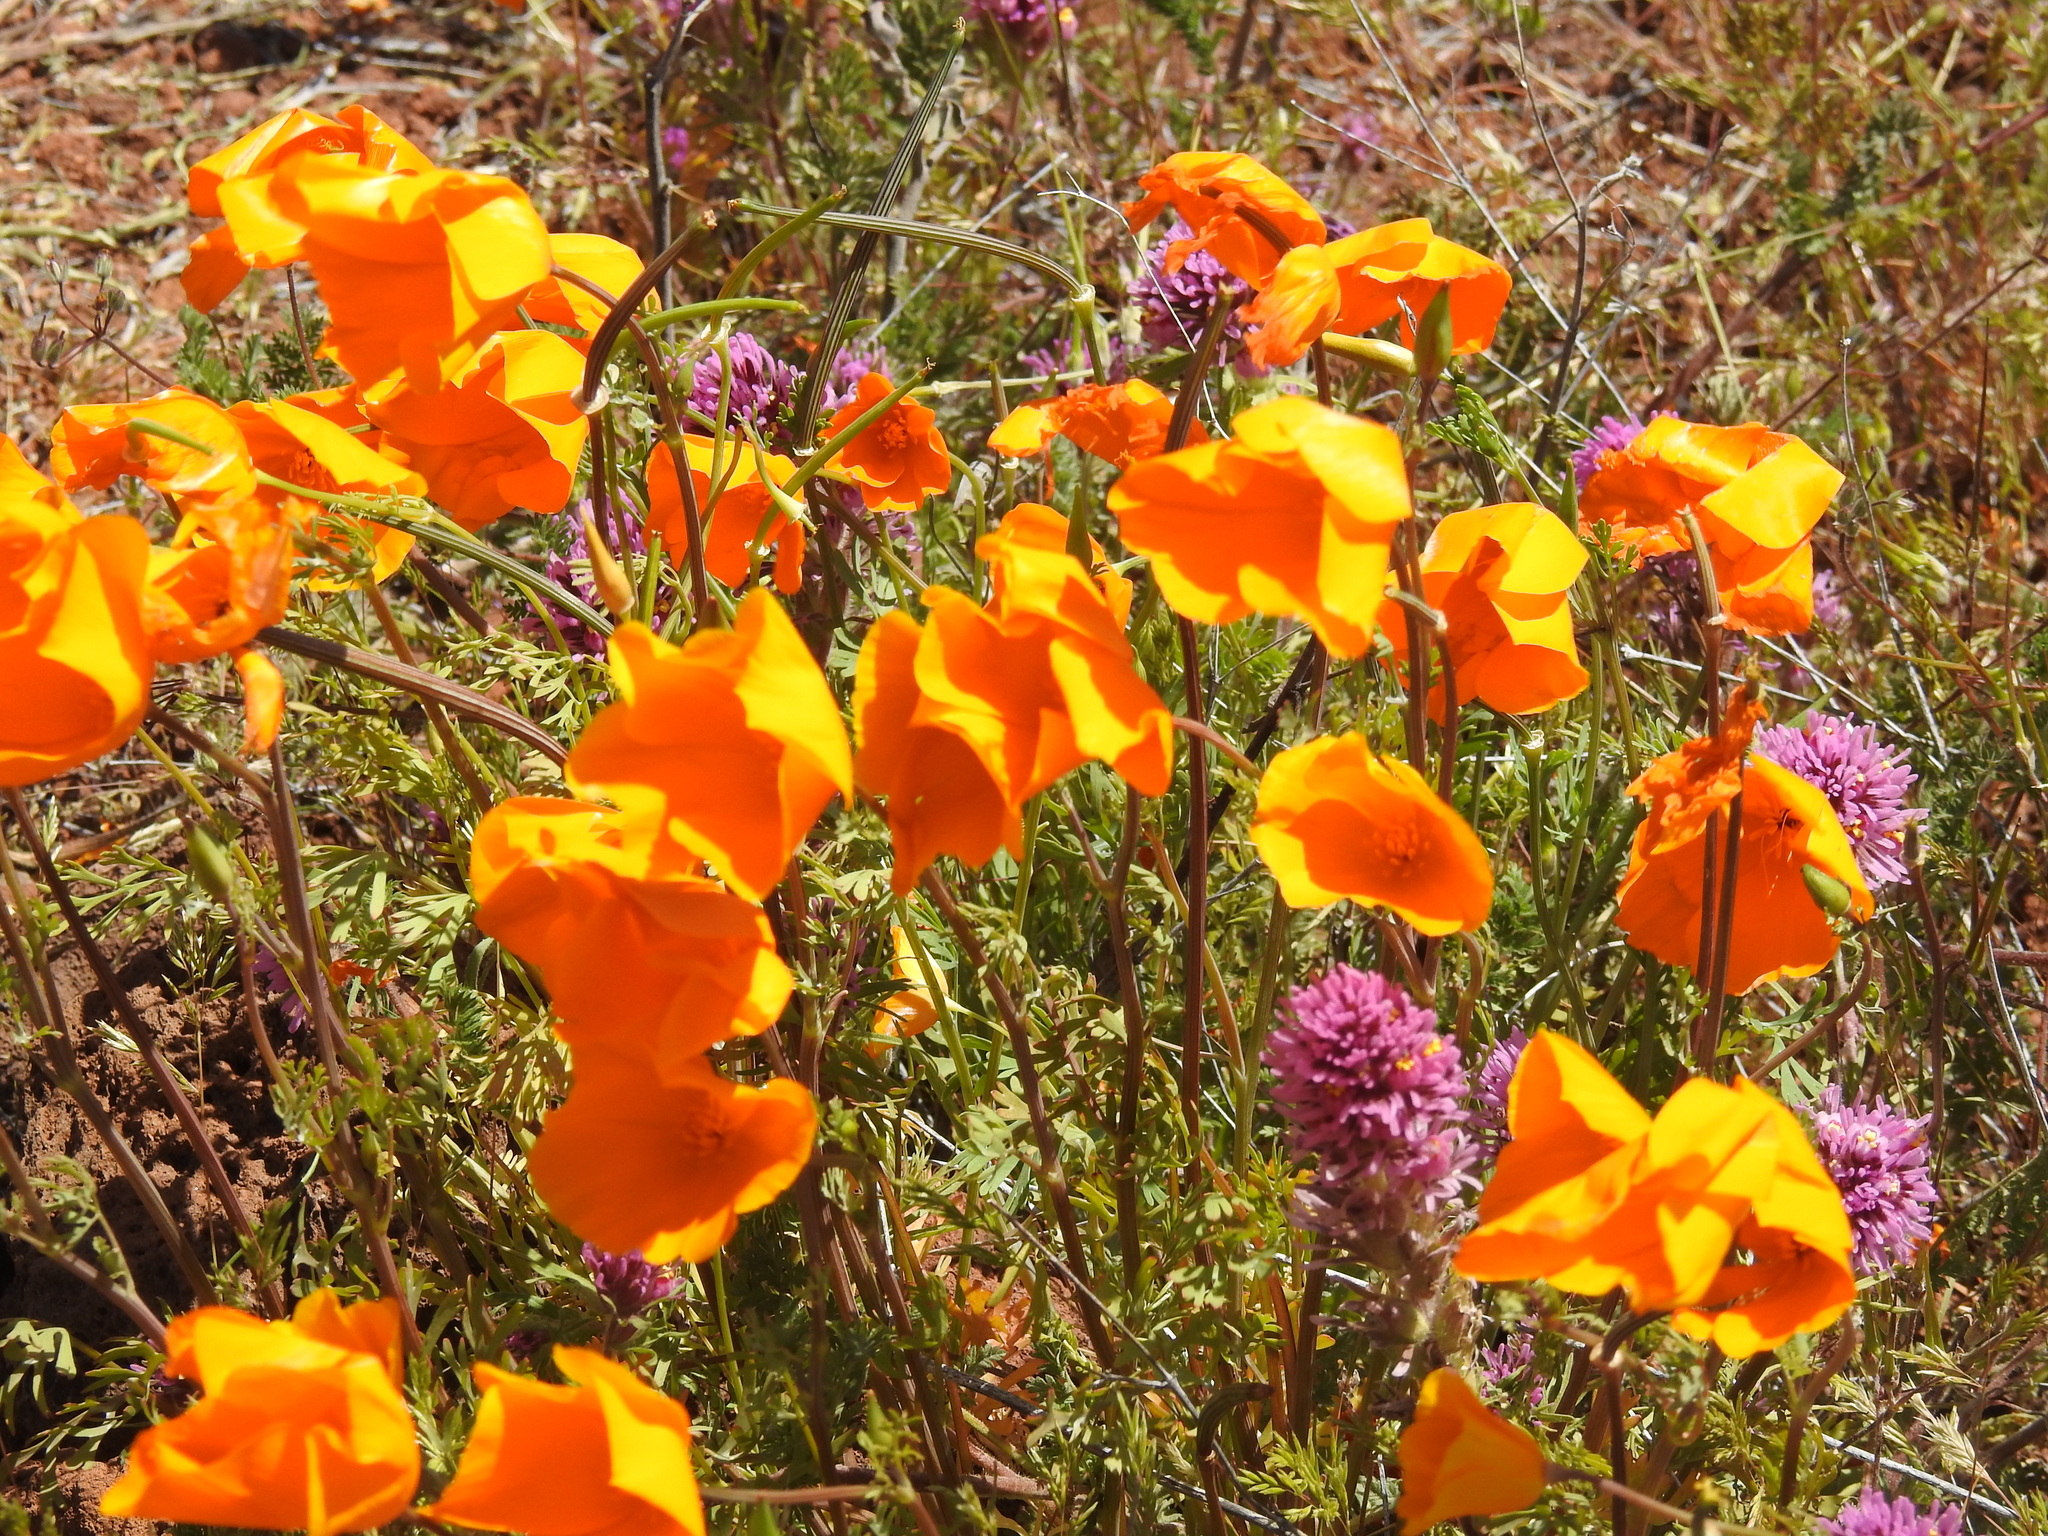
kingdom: Plantae
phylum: Tracheophyta
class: Magnoliopsida
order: Ranunculales
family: Papaveraceae
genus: Eschscholzia
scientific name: Eschscholzia californica
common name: California poppy
